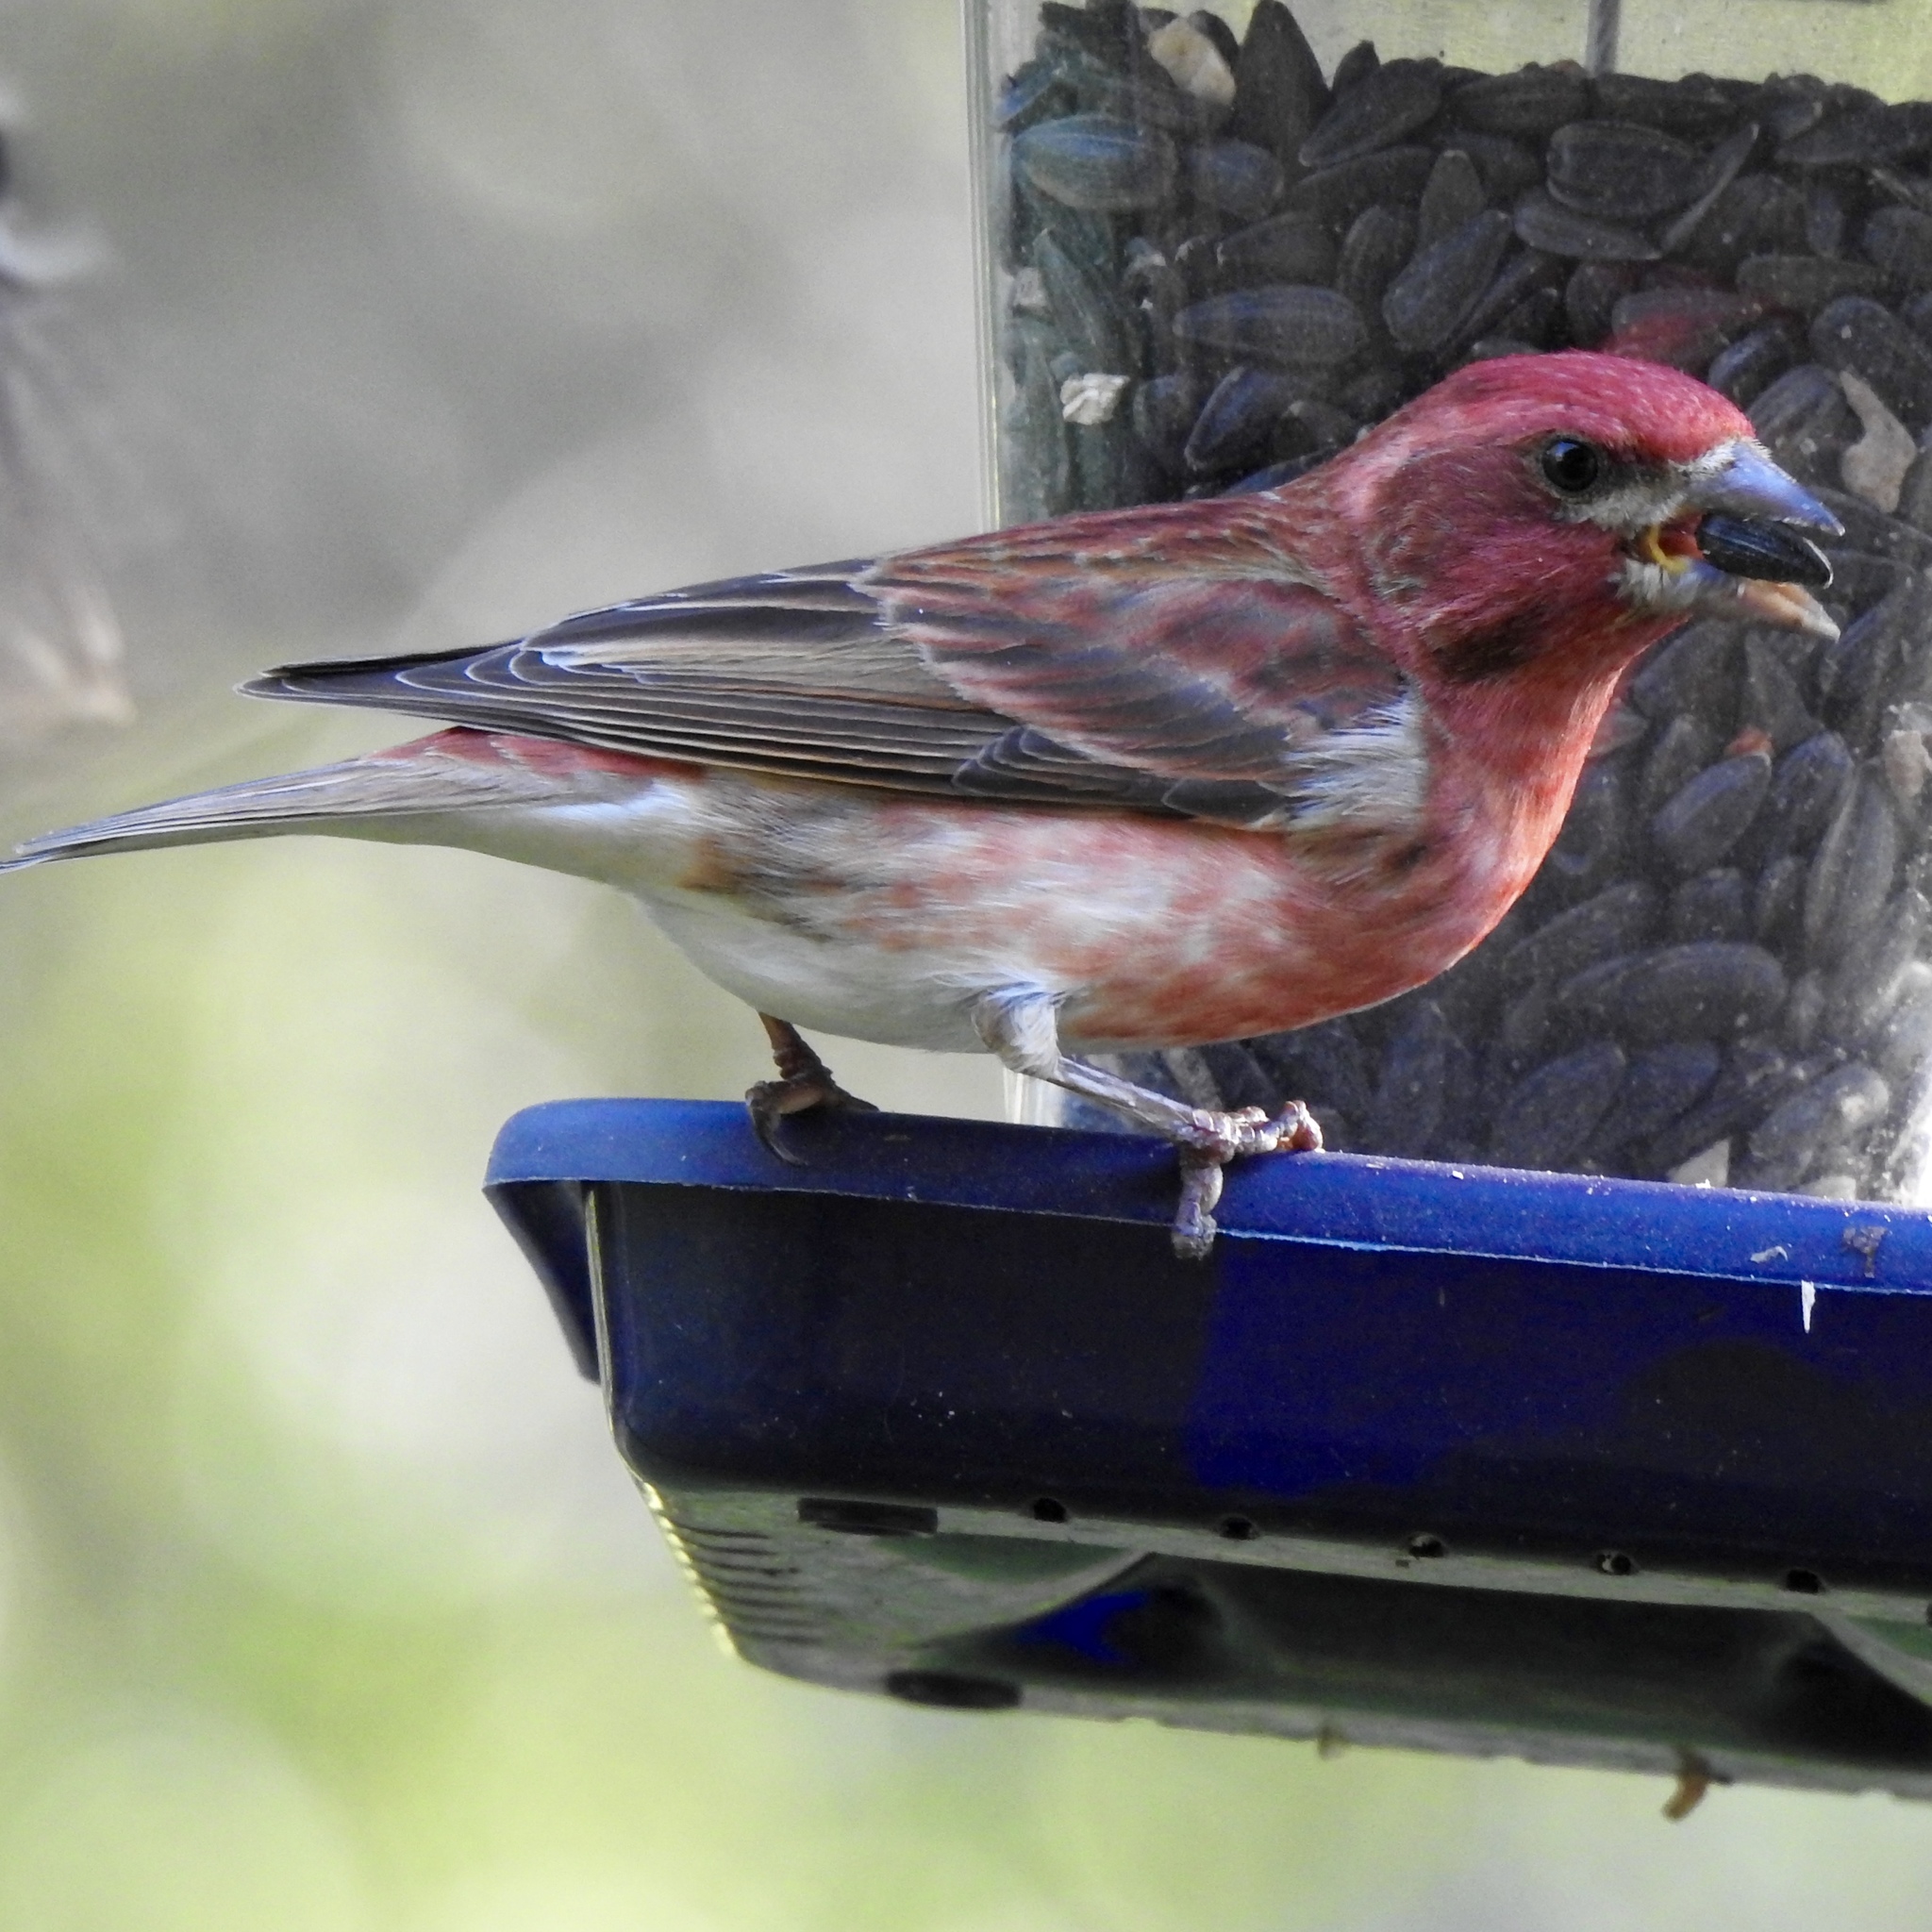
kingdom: Animalia
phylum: Chordata
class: Aves
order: Passeriformes
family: Fringillidae
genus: Haemorhous
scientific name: Haemorhous purpureus
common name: Purple finch
